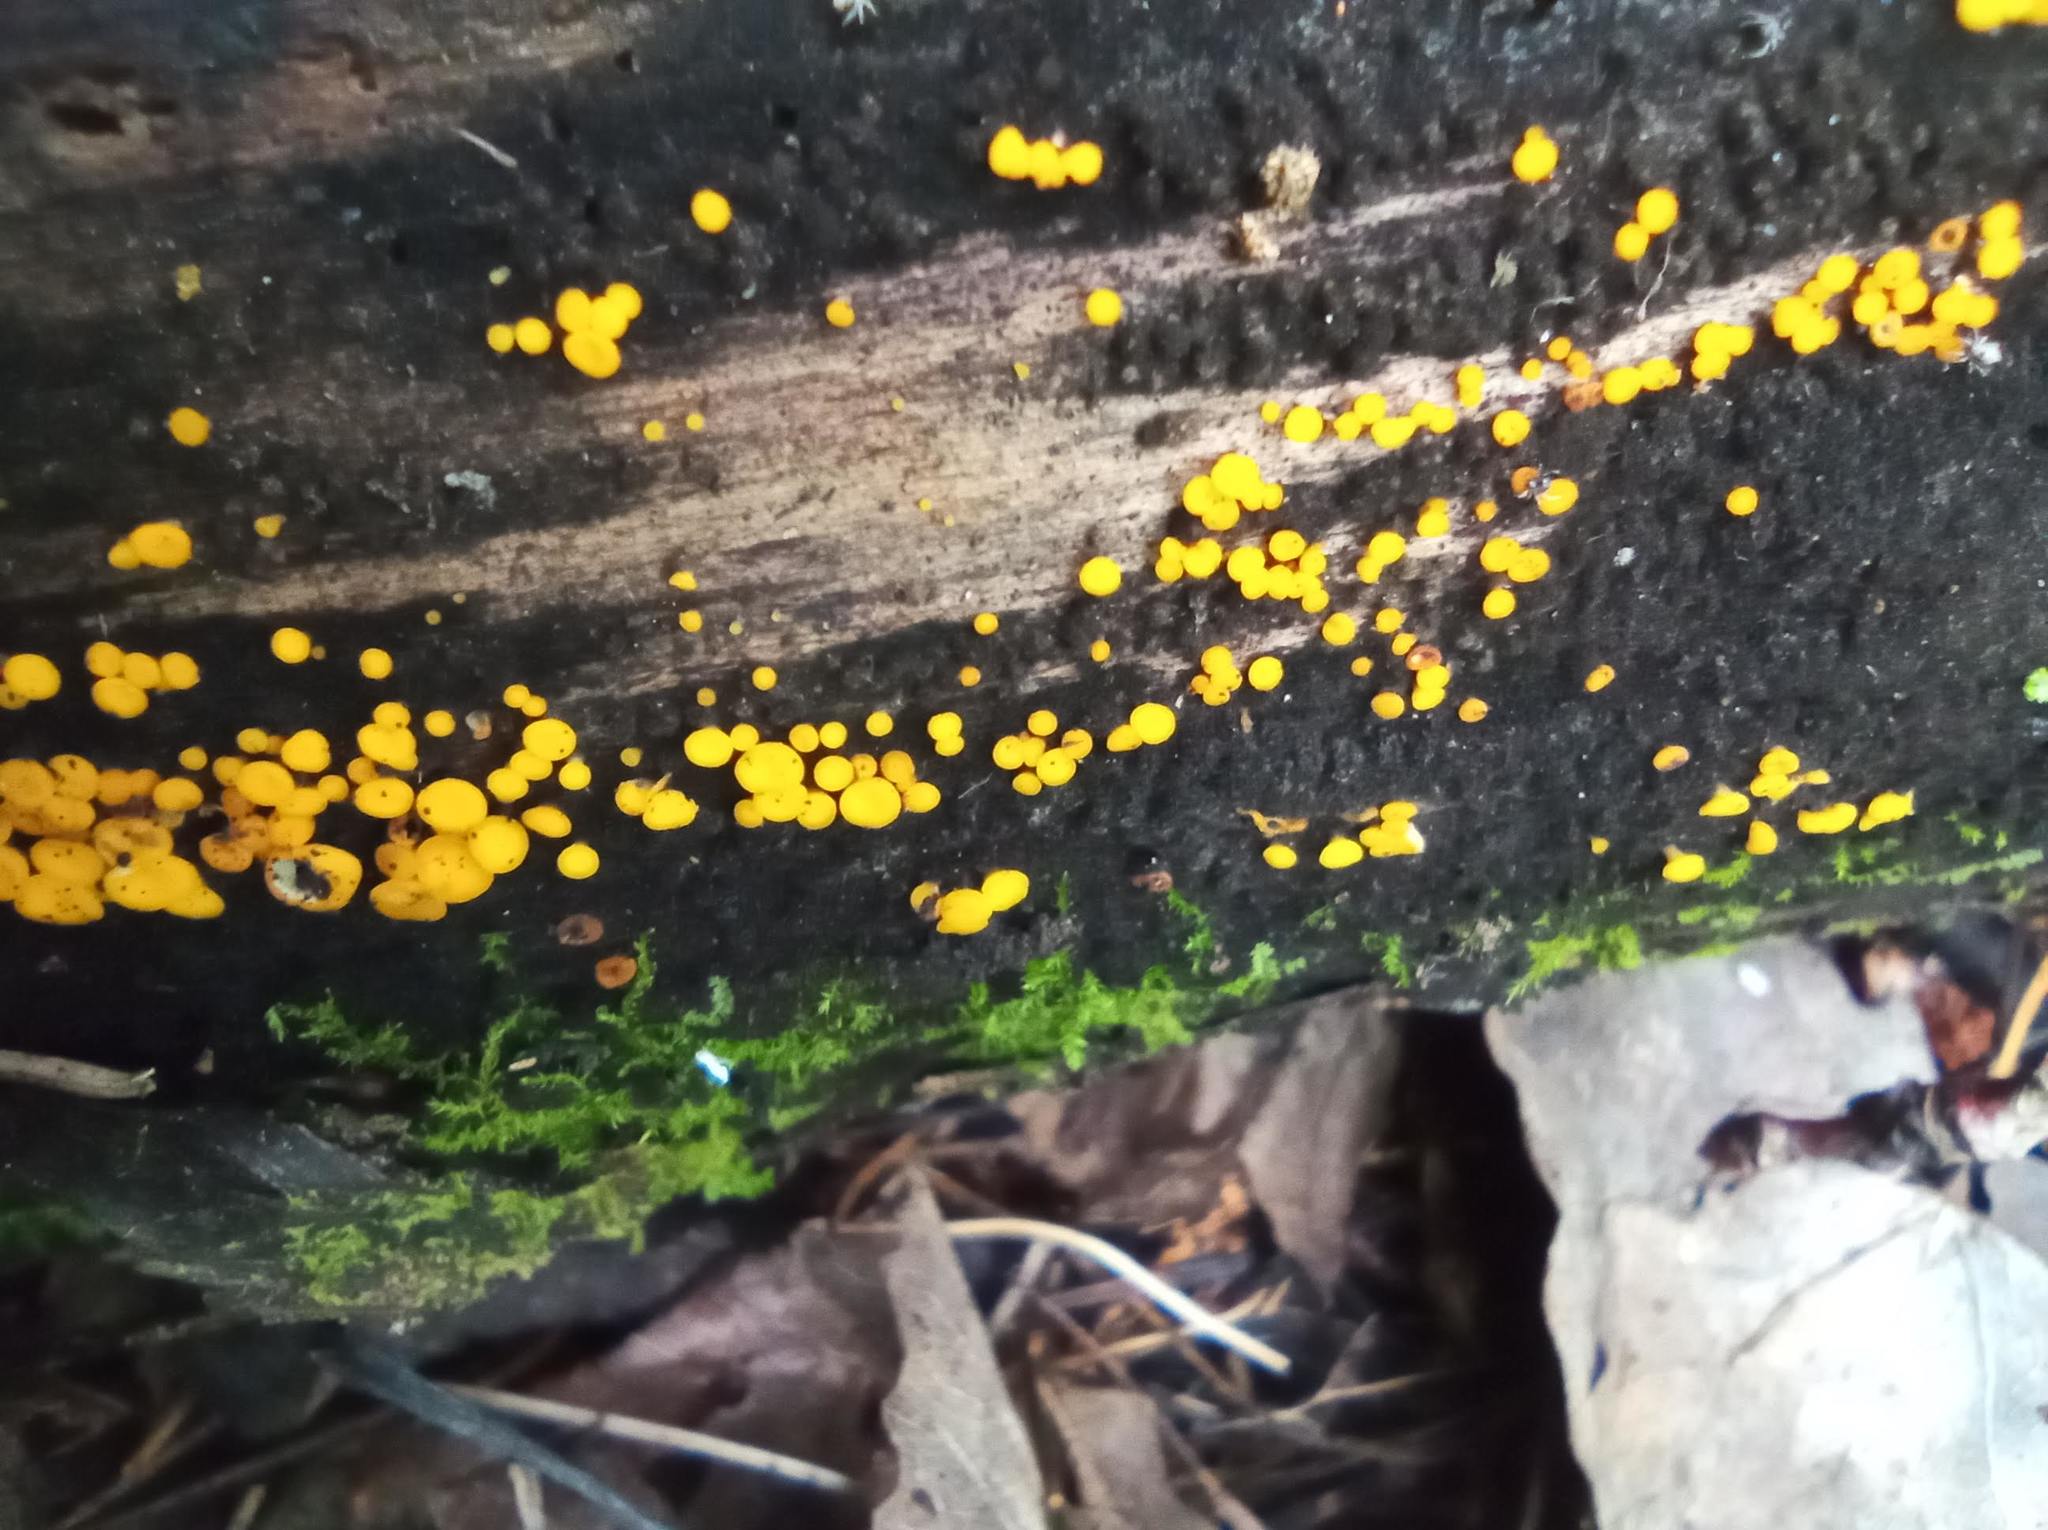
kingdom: Fungi
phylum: Ascomycota
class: Leotiomycetes
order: Helotiales
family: Pezizellaceae
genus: Calycina
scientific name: Calycina citrina
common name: Yellow fairy cups
